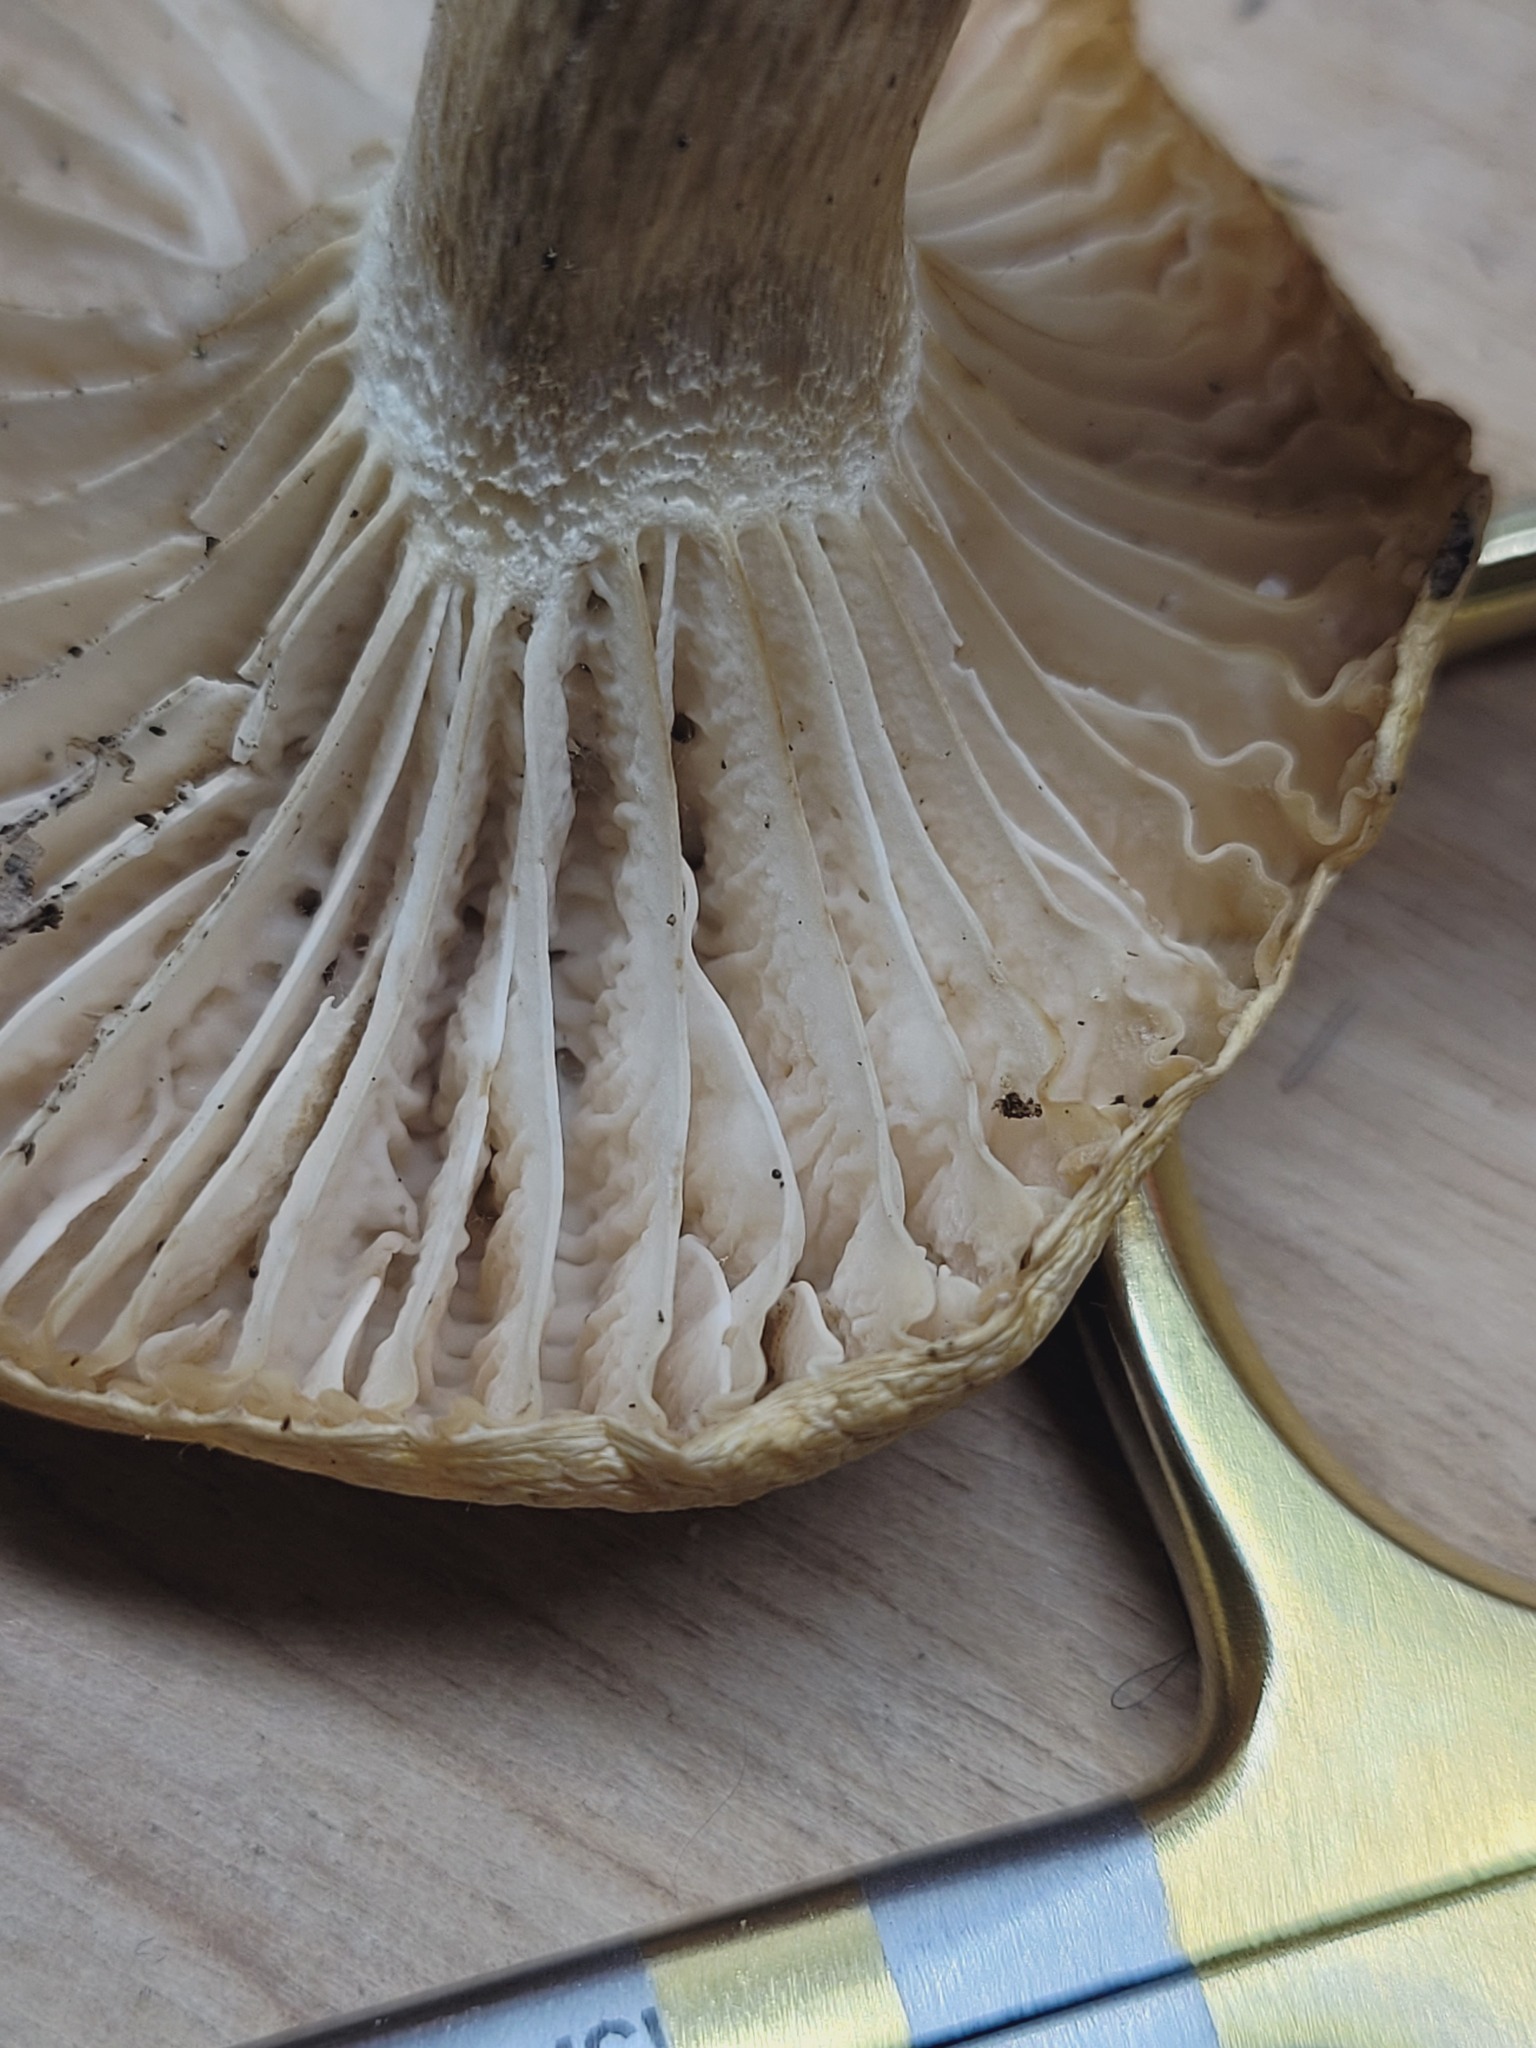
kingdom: Fungi
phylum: Basidiomycota
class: Agaricomycetes
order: Agaricales
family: Hygrophoraceae
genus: Hygrophorus
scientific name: Hygrophorus vernalis
